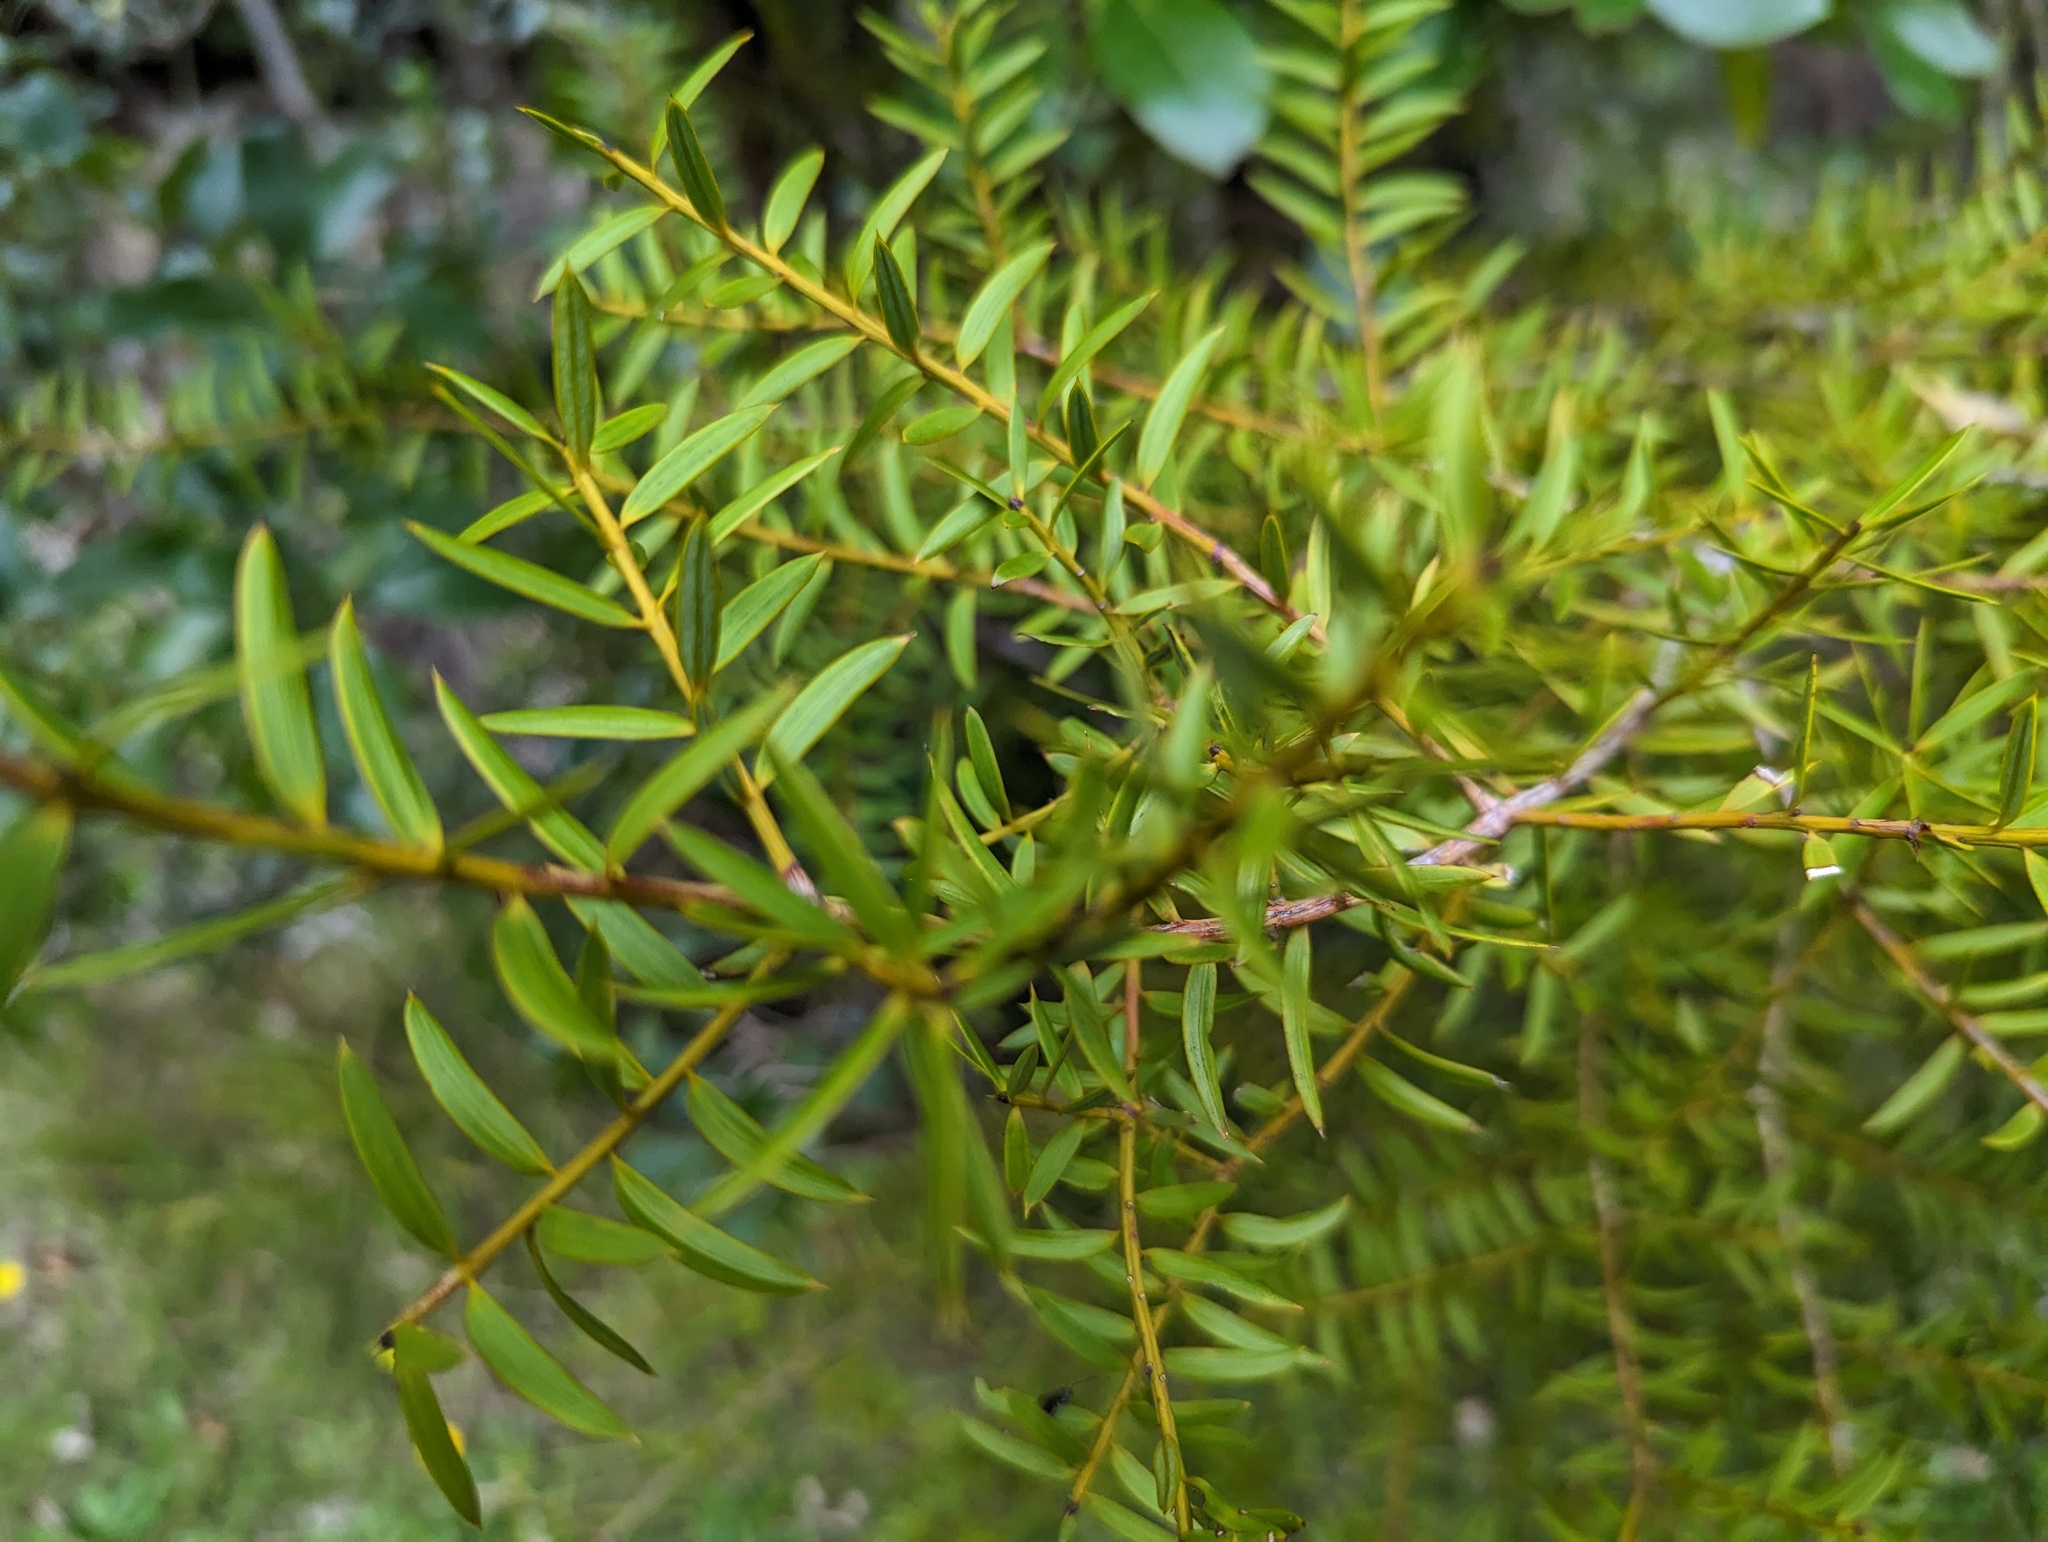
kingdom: Plantae
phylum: Tracheophyta
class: Pinopsida
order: Pinales
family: Podocarpaceae
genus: Podocarpus
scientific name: Podocarpus totara
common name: Totara
